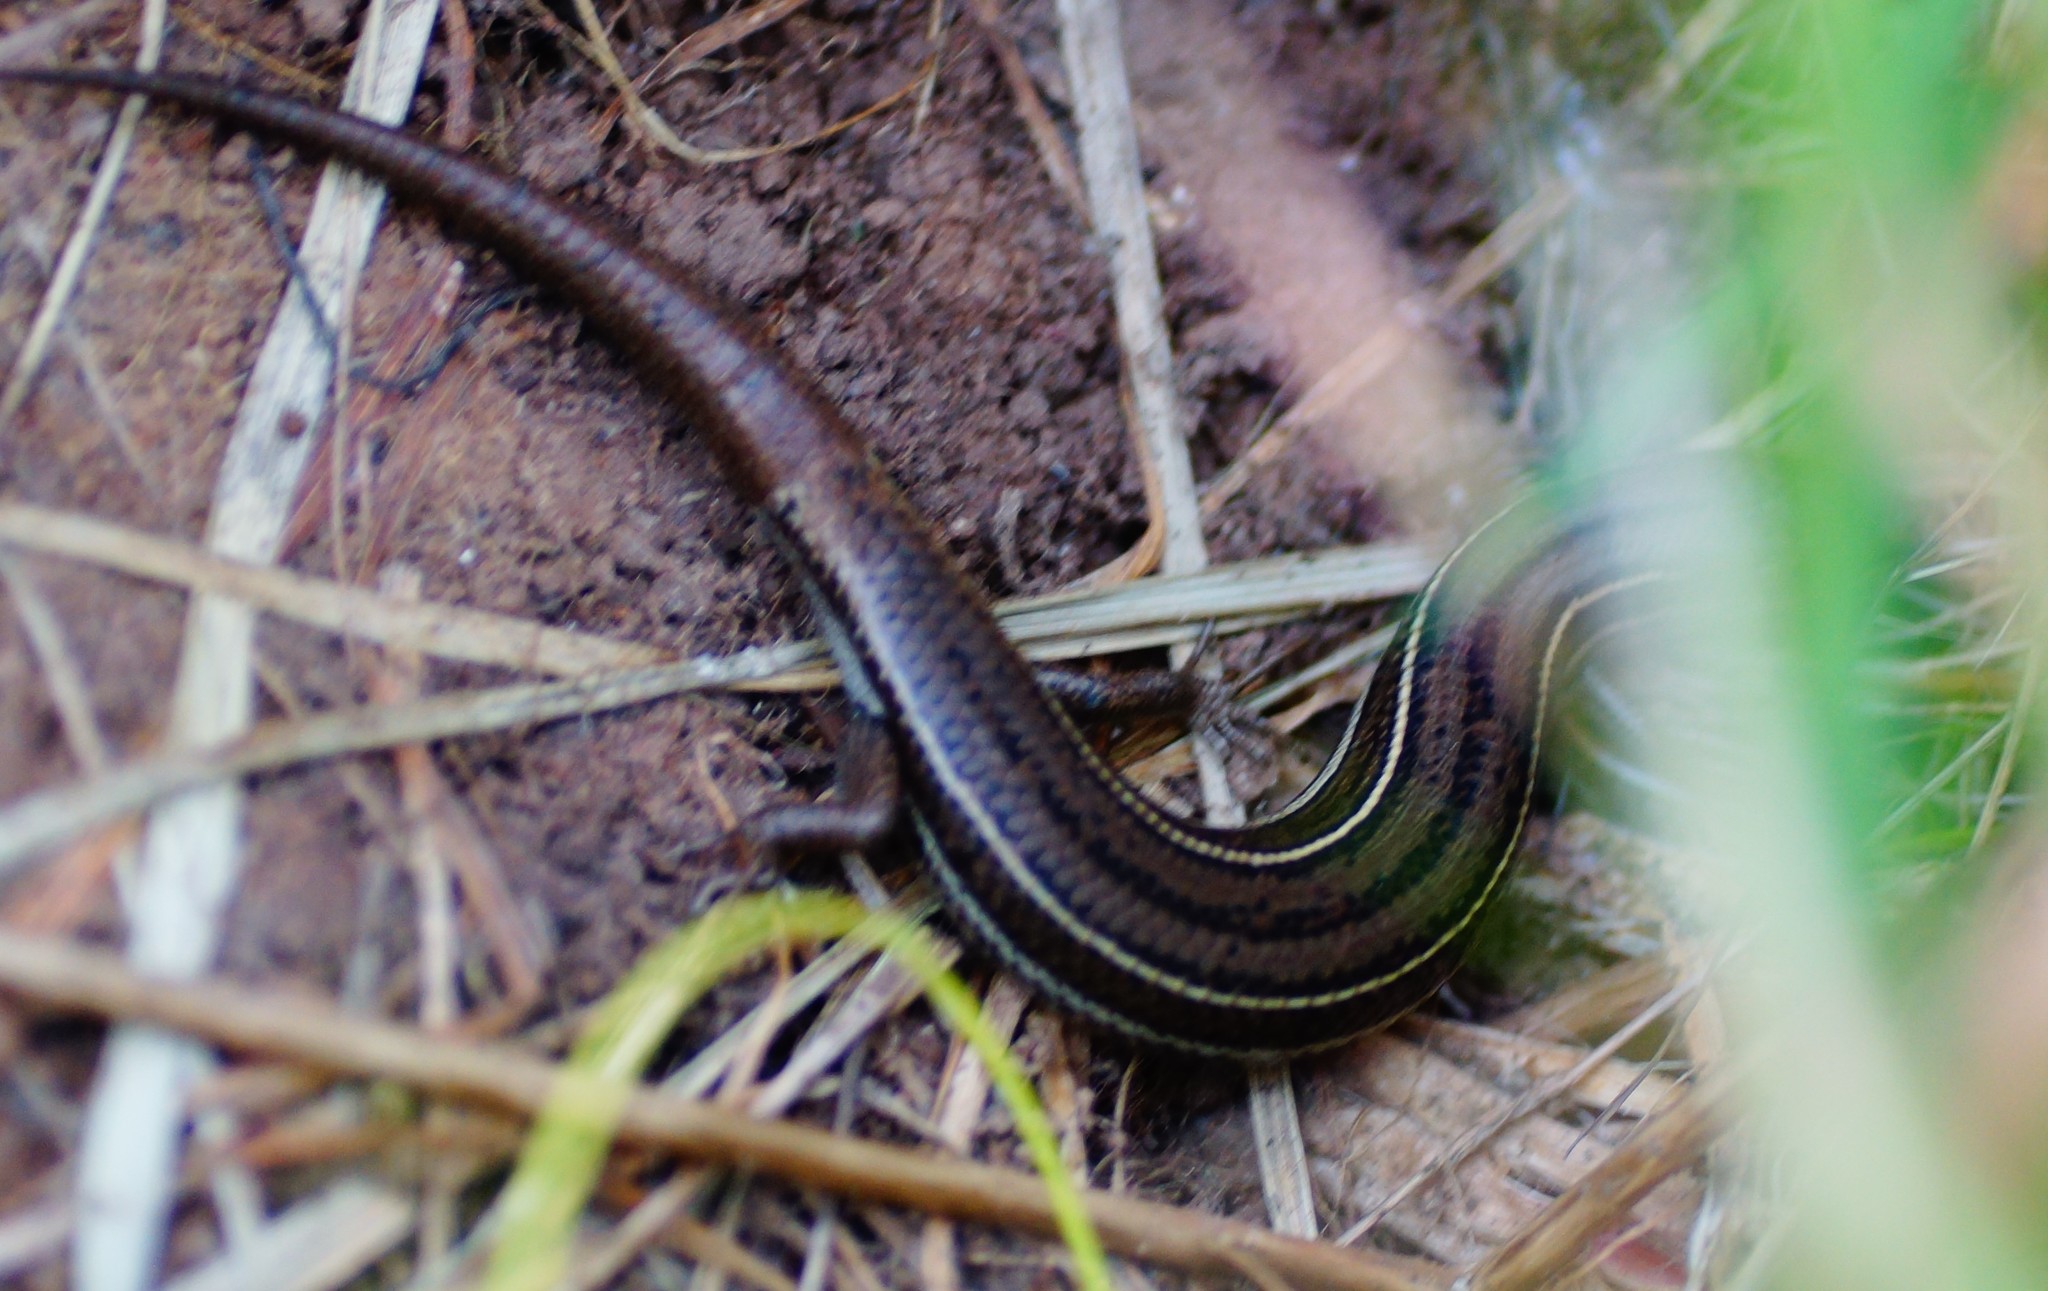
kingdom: Animalia
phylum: Chordata
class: Squamata
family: Scincidae
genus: Acritoscincus
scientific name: Acritoscincus duperreyi
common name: Bold-striped cool-skink
